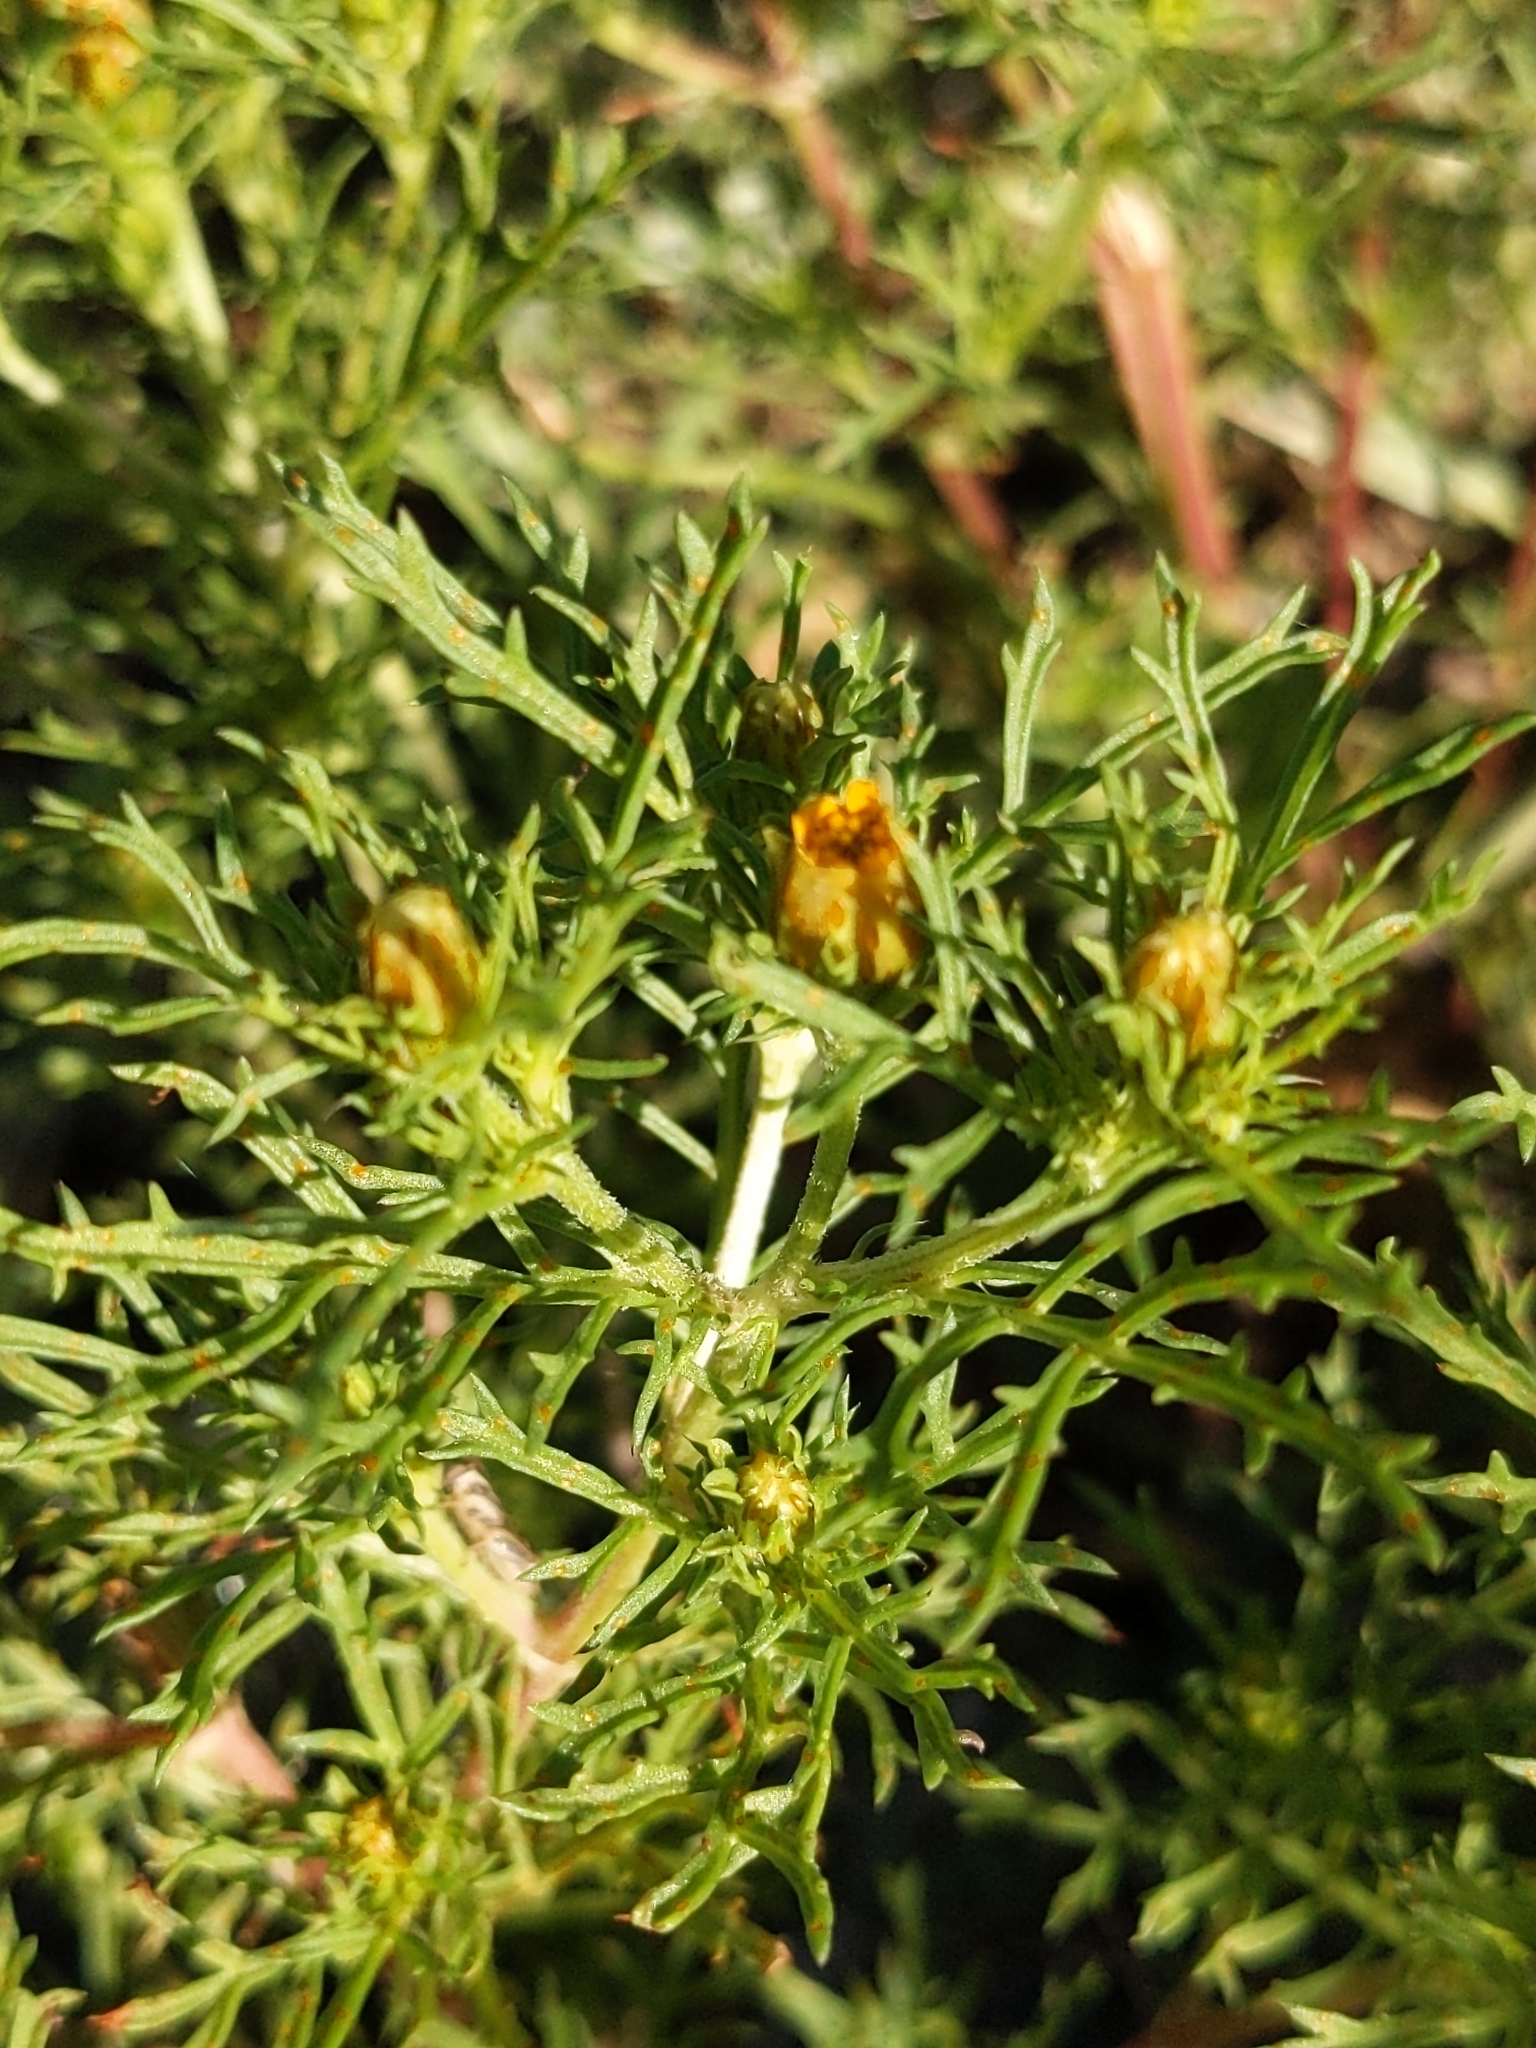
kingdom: Plantae
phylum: Tracheophyta
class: Magnoliopsida
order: Asterales
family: Asteraceae
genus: Dyssodia
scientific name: Dyssodia papposa
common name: Dogweed
